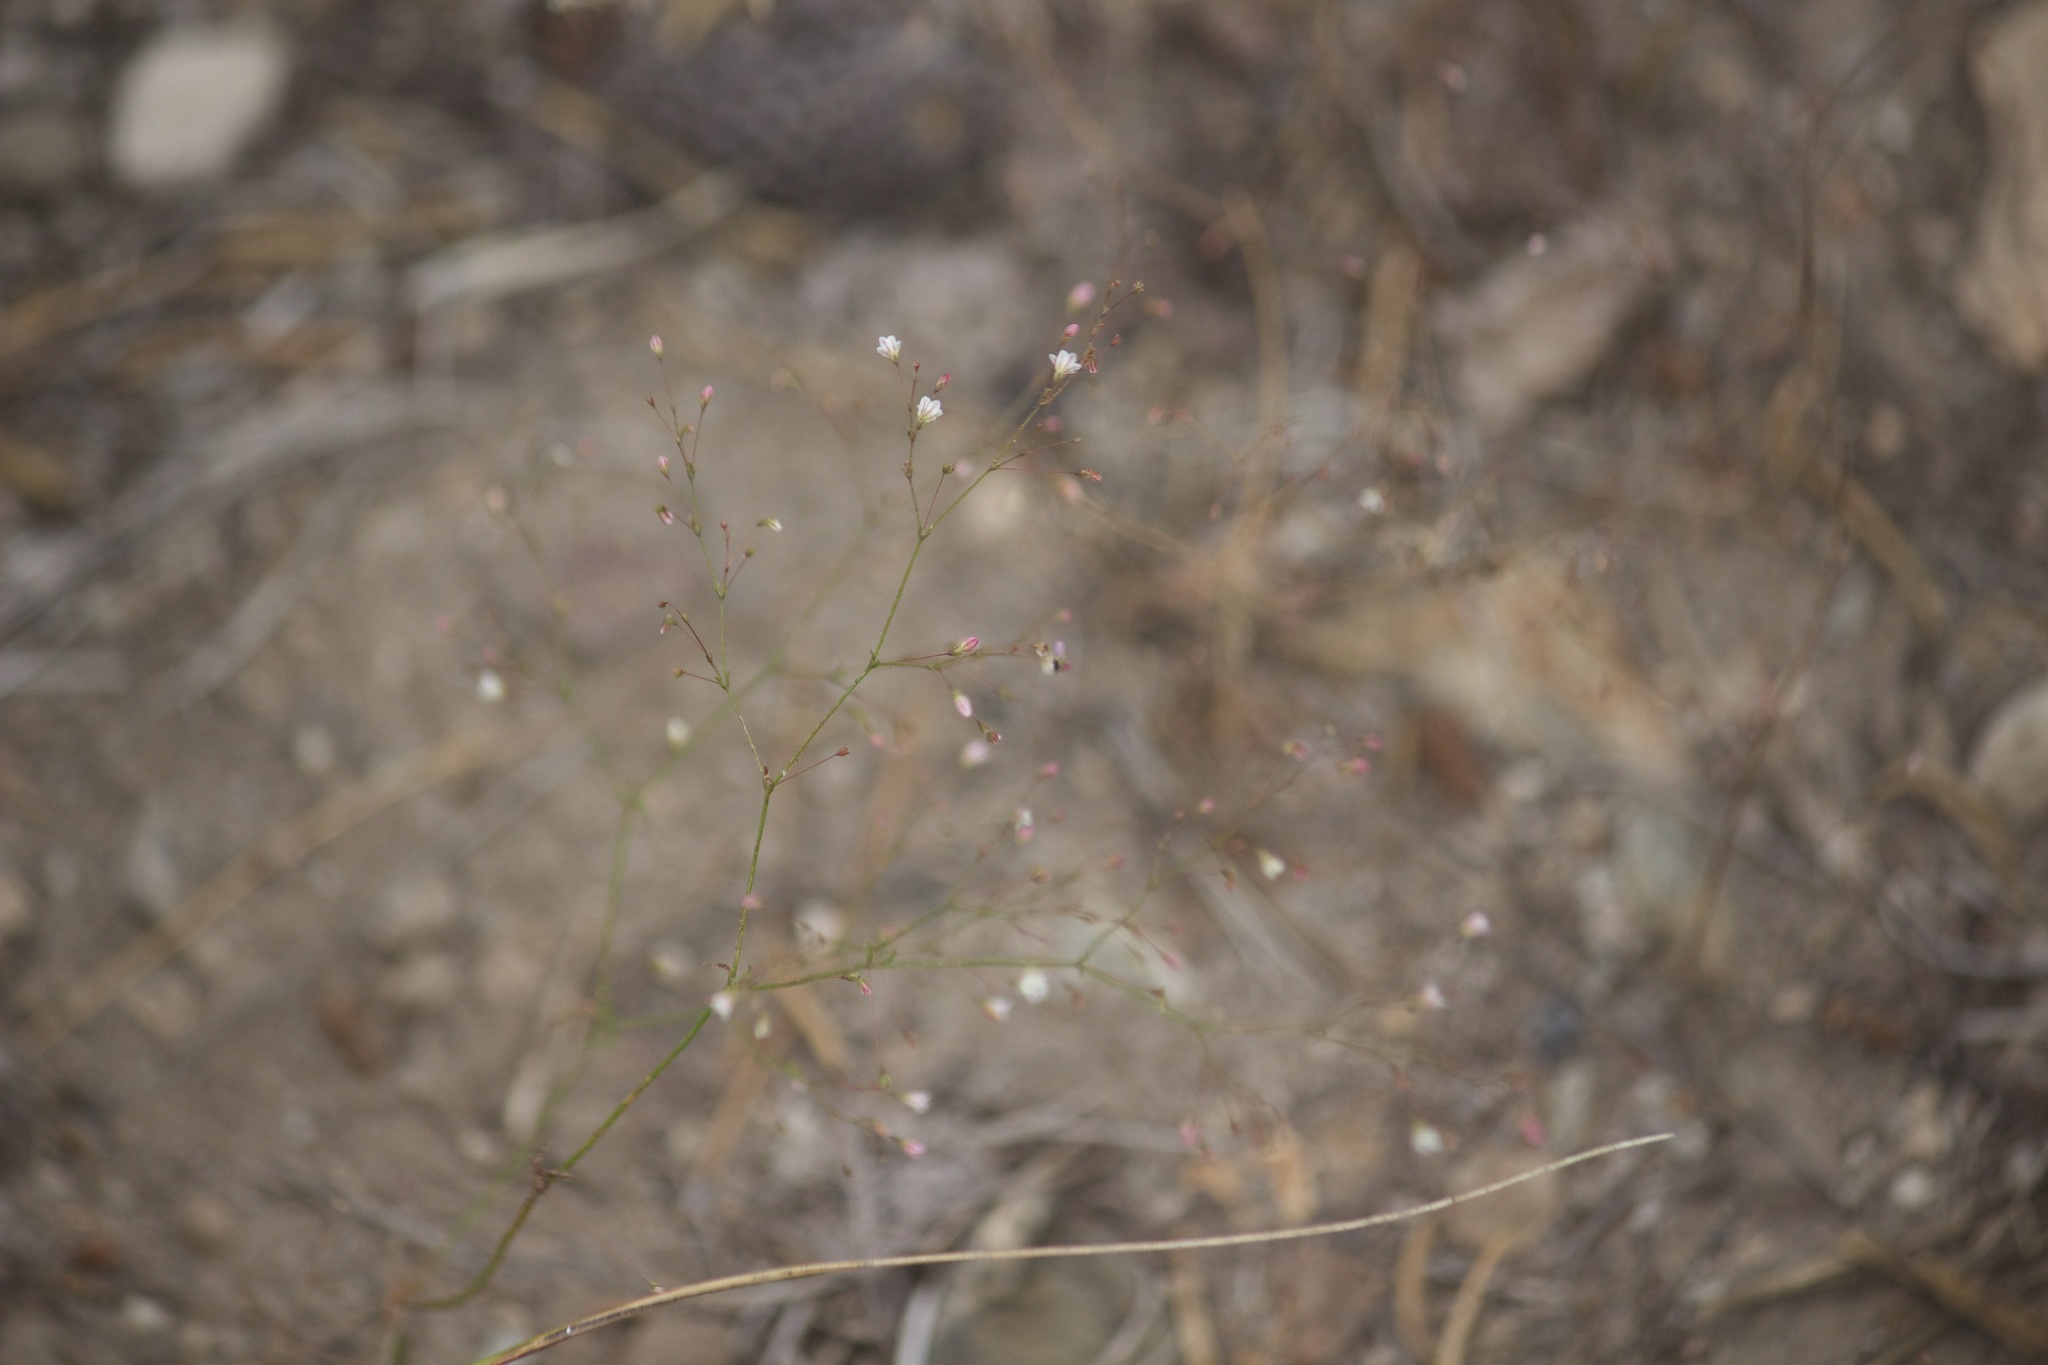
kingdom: Plantae
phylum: Tracheophyta
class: Magnoliopsida
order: Caryophyllales
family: Polygonaceae
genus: Eriogonum
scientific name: Eriogonum spergulinum
